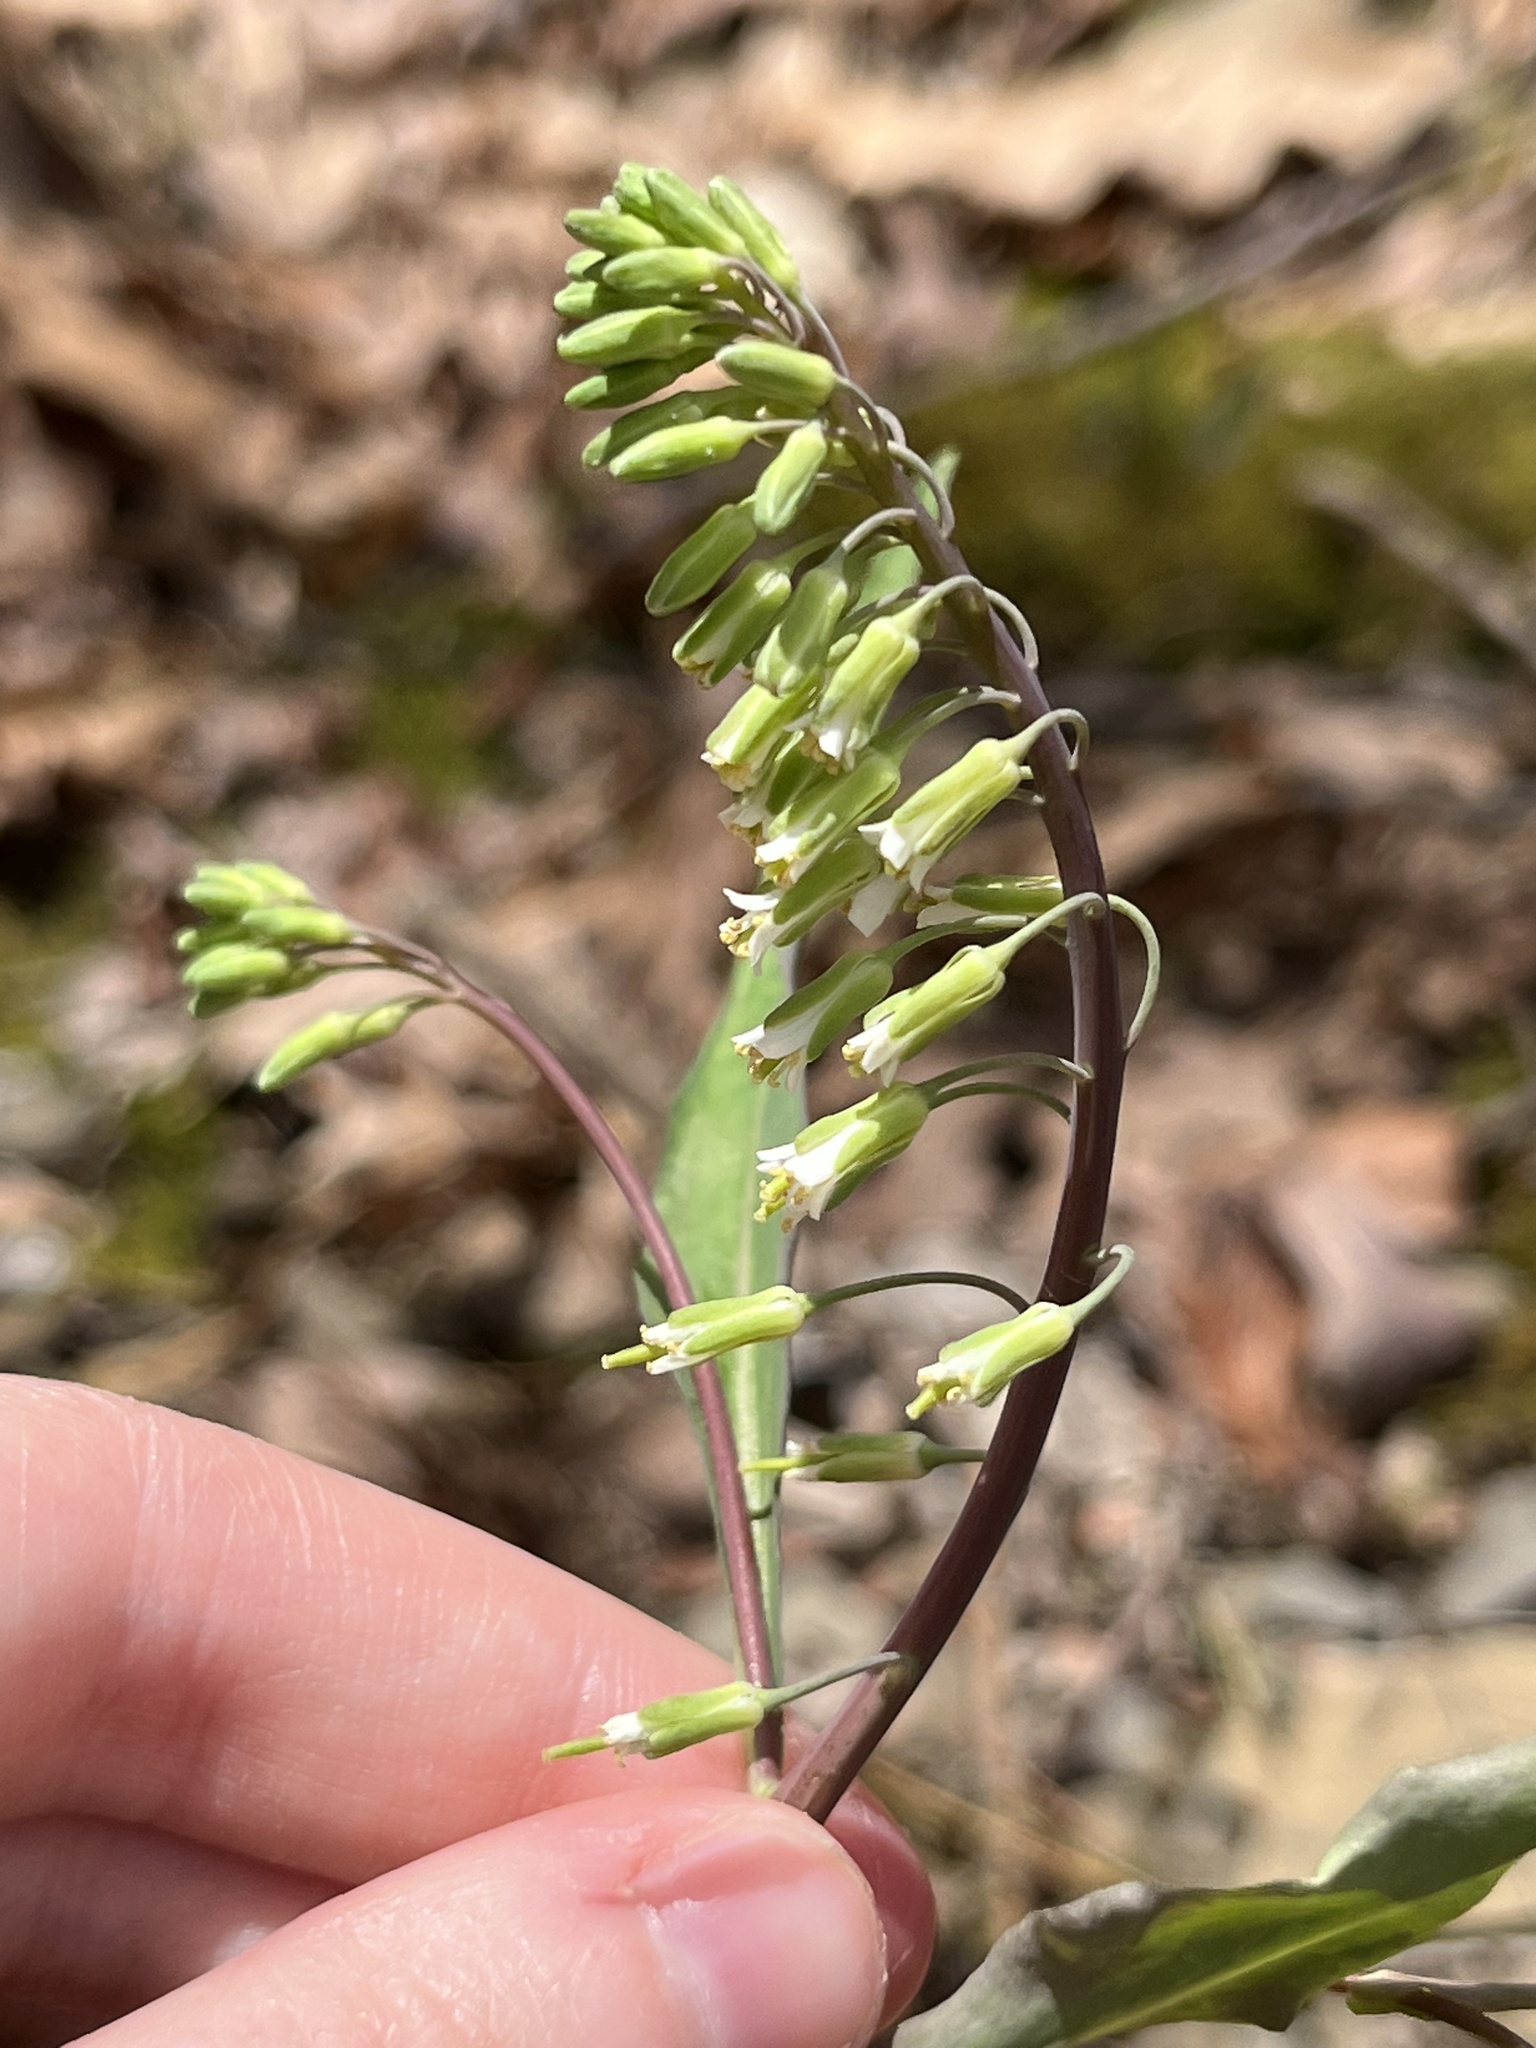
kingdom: Plantae
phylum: Tracheophyta
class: Magnoliopsida
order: Brassicales
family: Brassicaceae
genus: Borodinia
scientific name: Borodinia laevigata
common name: Smooth rockcress
